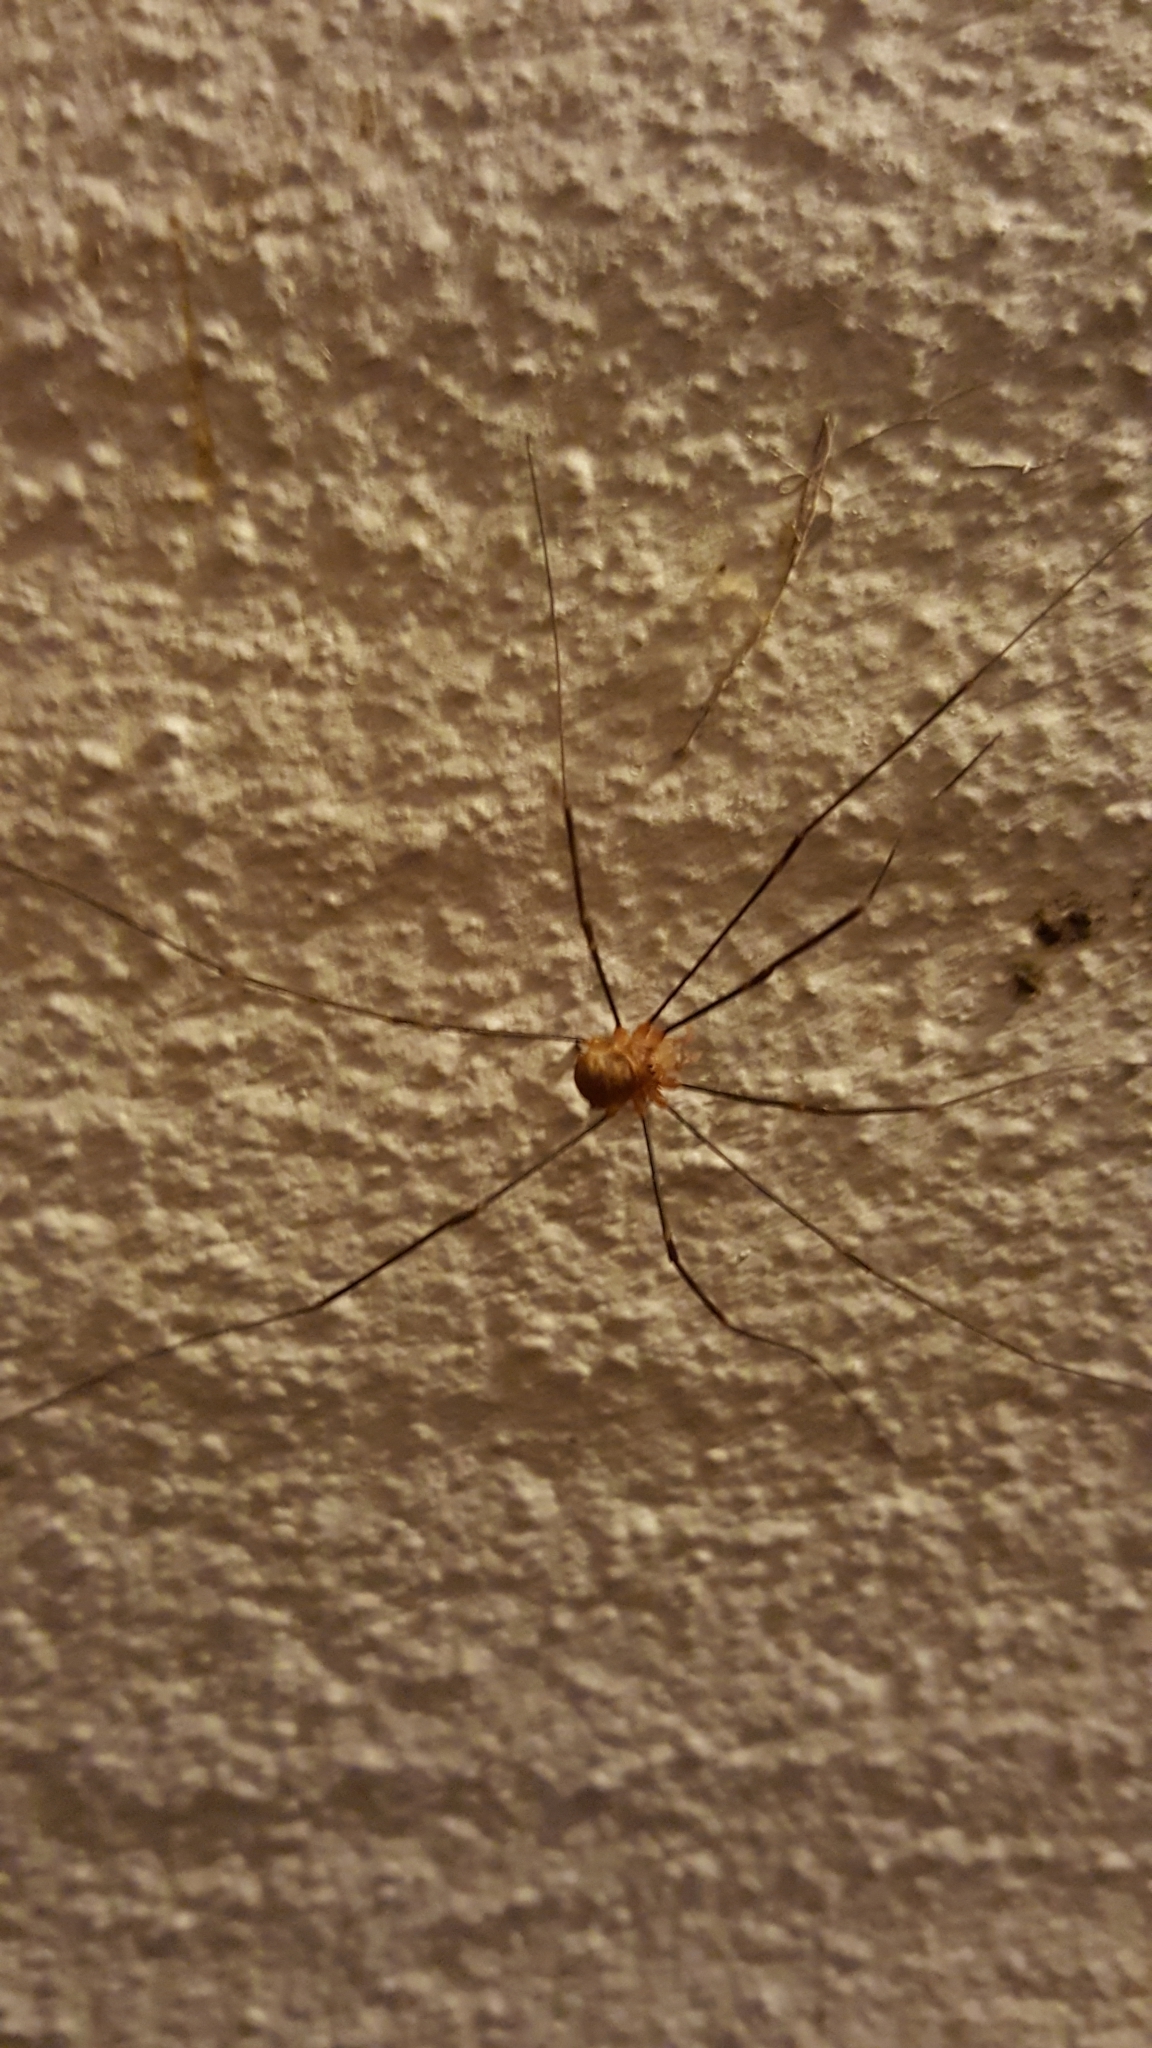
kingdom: Animalia
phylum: Arthropoda
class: Arachnida
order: Opiliones
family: Phalangiidae
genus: Opilio
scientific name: Opilio canestrinii
